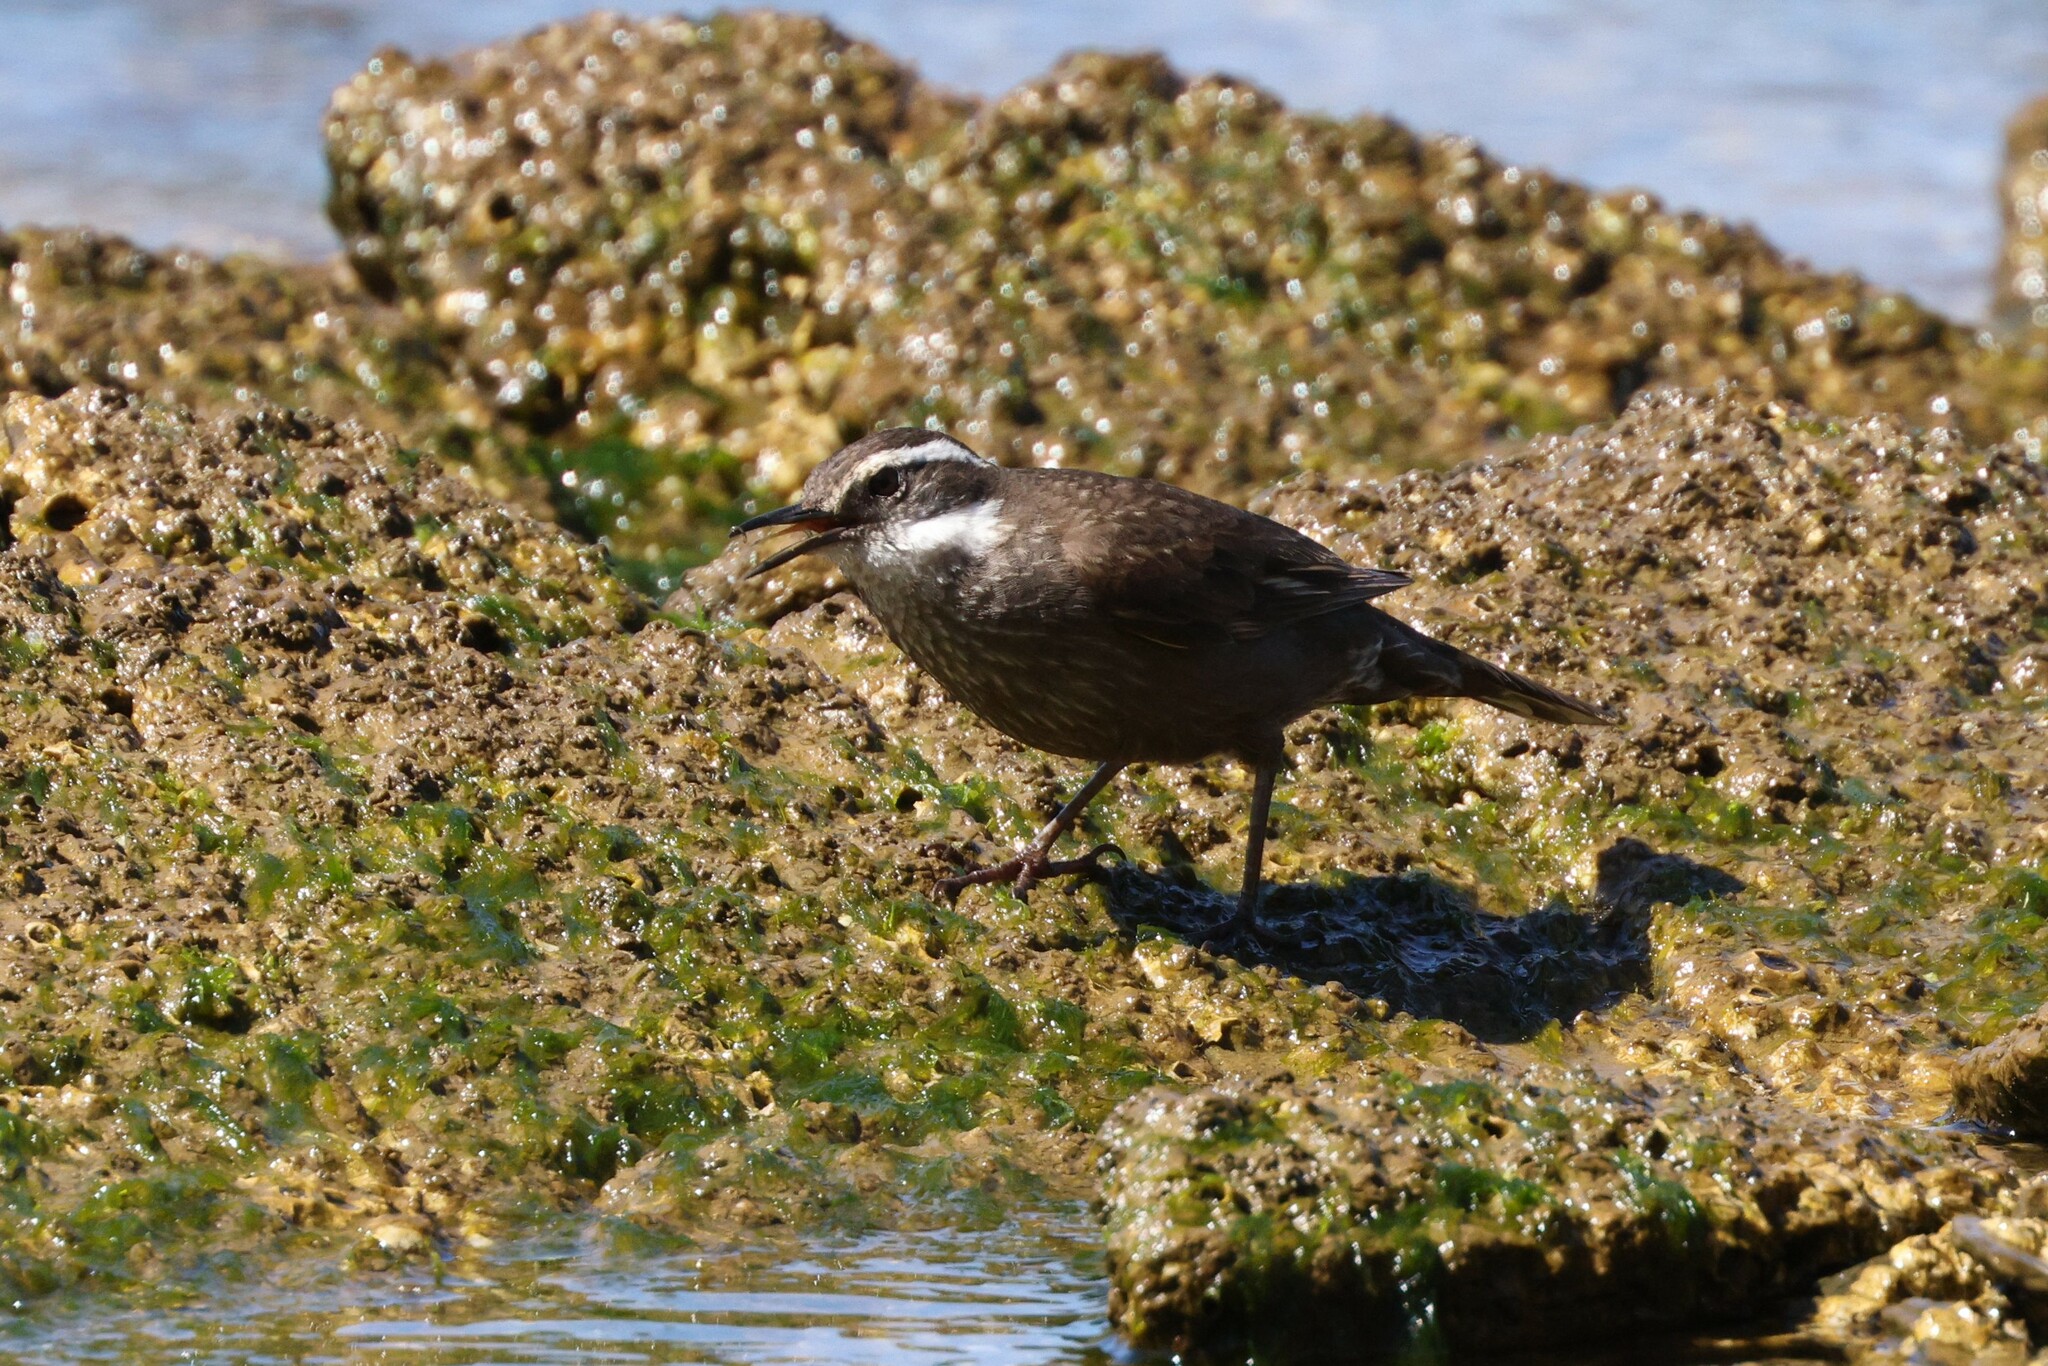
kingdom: Animalia
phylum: Chordata
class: Aves
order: Passeriformes
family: Furnariidae
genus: Cinclodes
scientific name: Cinclodes oustaleti
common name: Grey-flanked cinclodes
